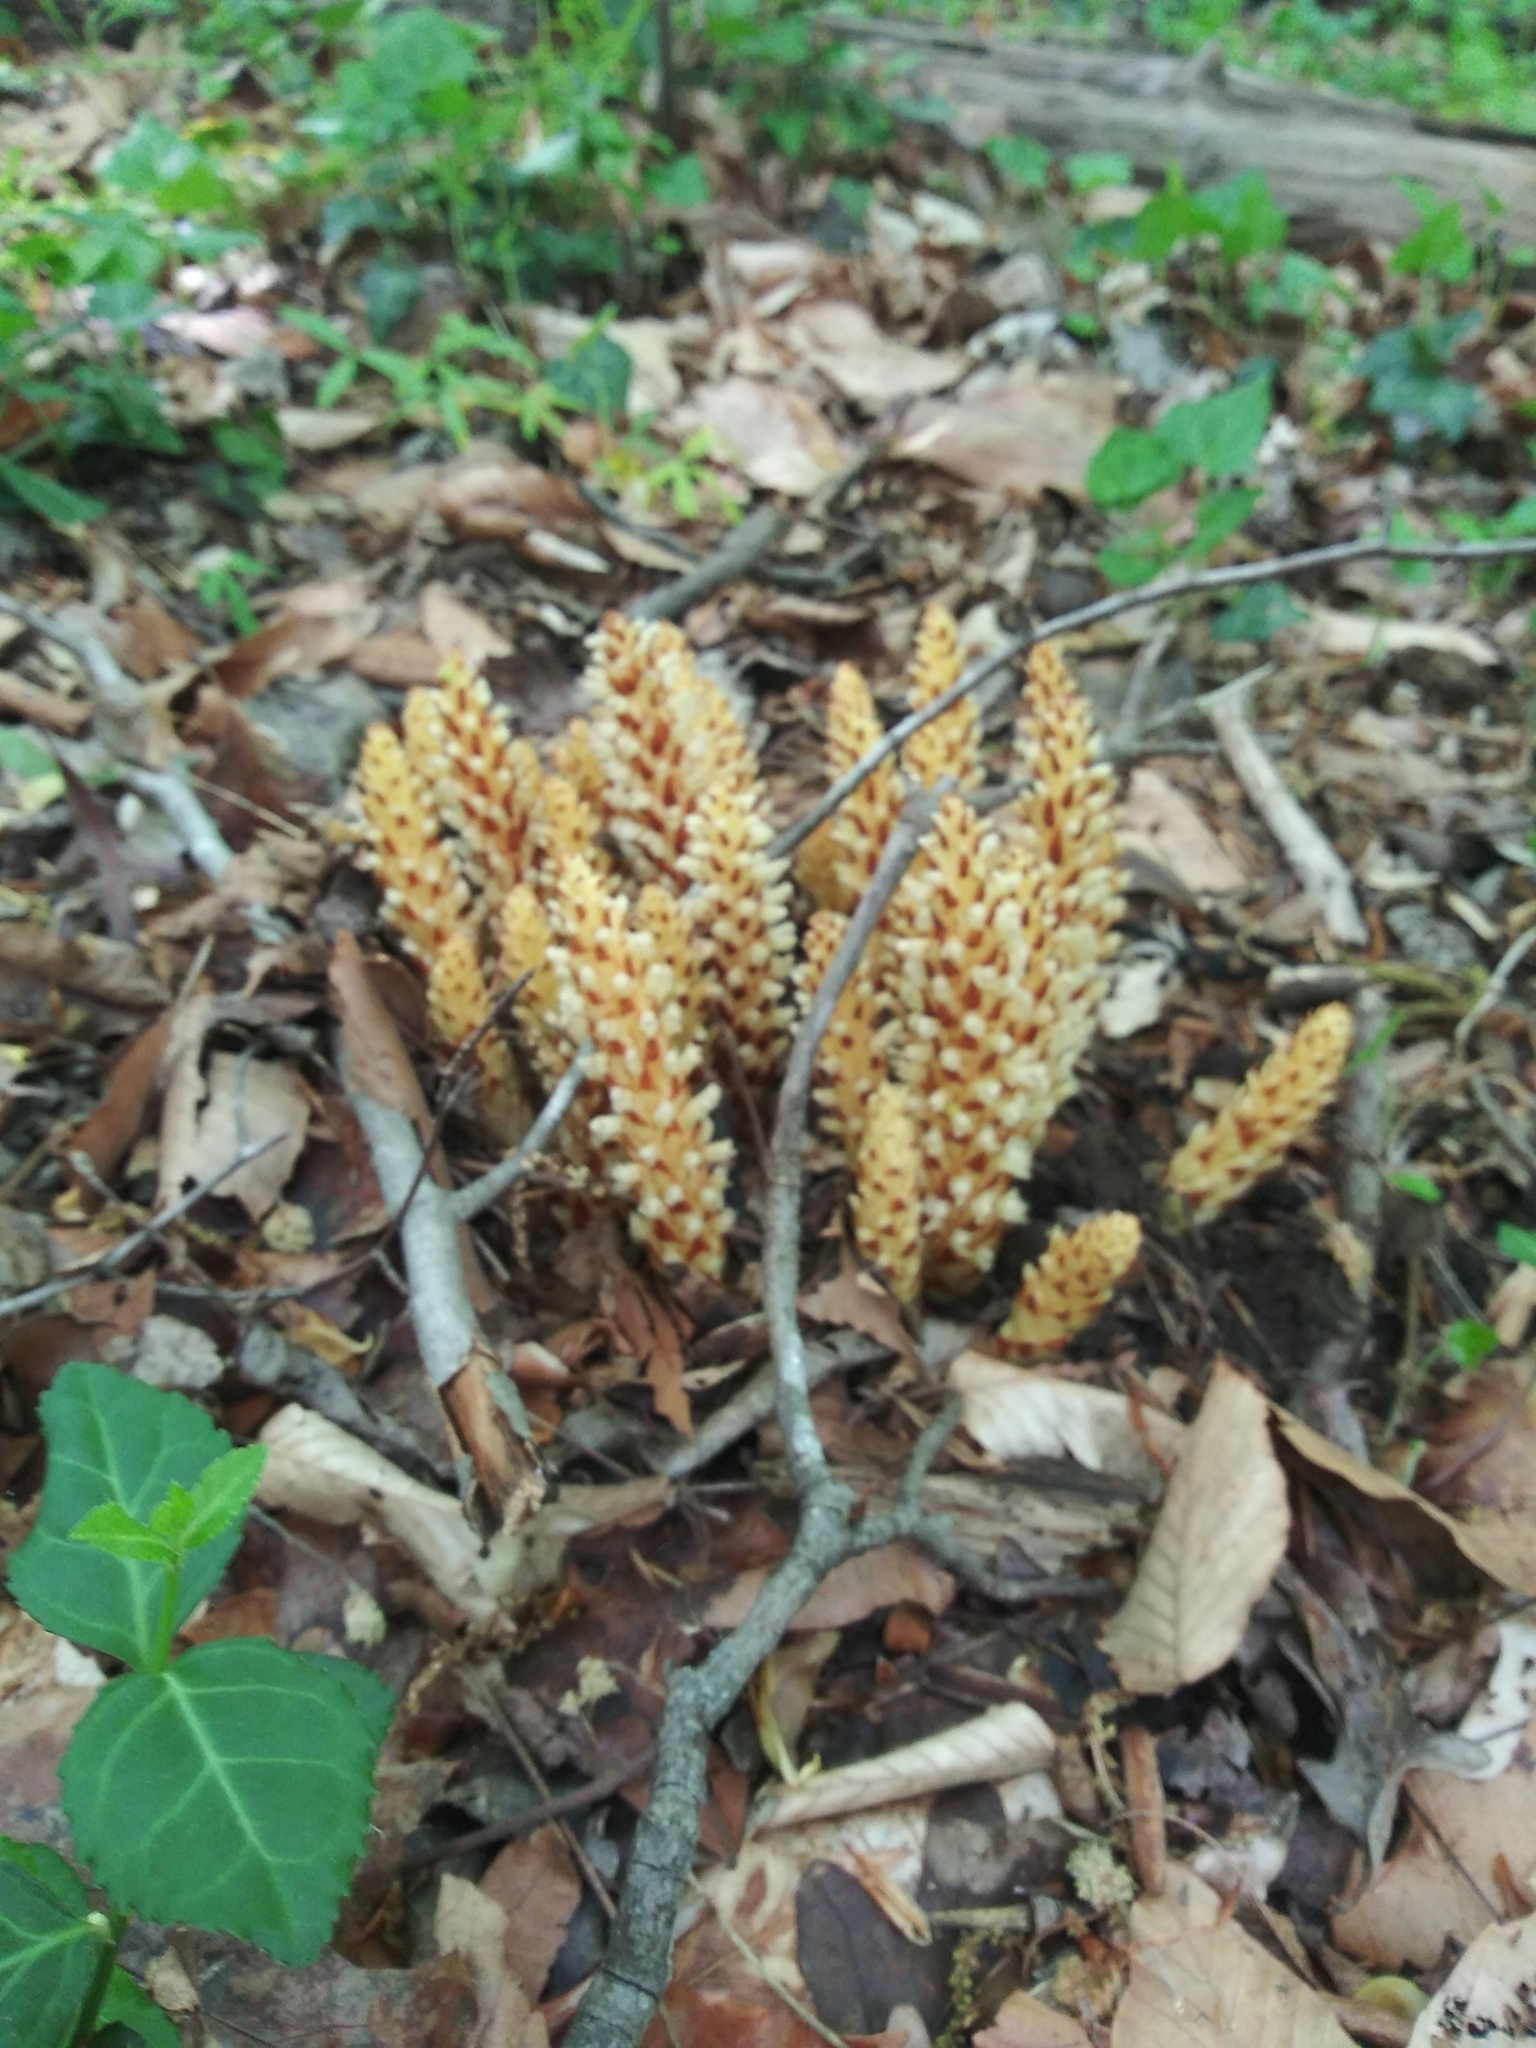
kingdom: Plantae
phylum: Tracheophyta
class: Magnoliopsida
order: Lamiales
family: Orobanchaceae
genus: Conopholis
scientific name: Conopholis americana
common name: American cancer-root
